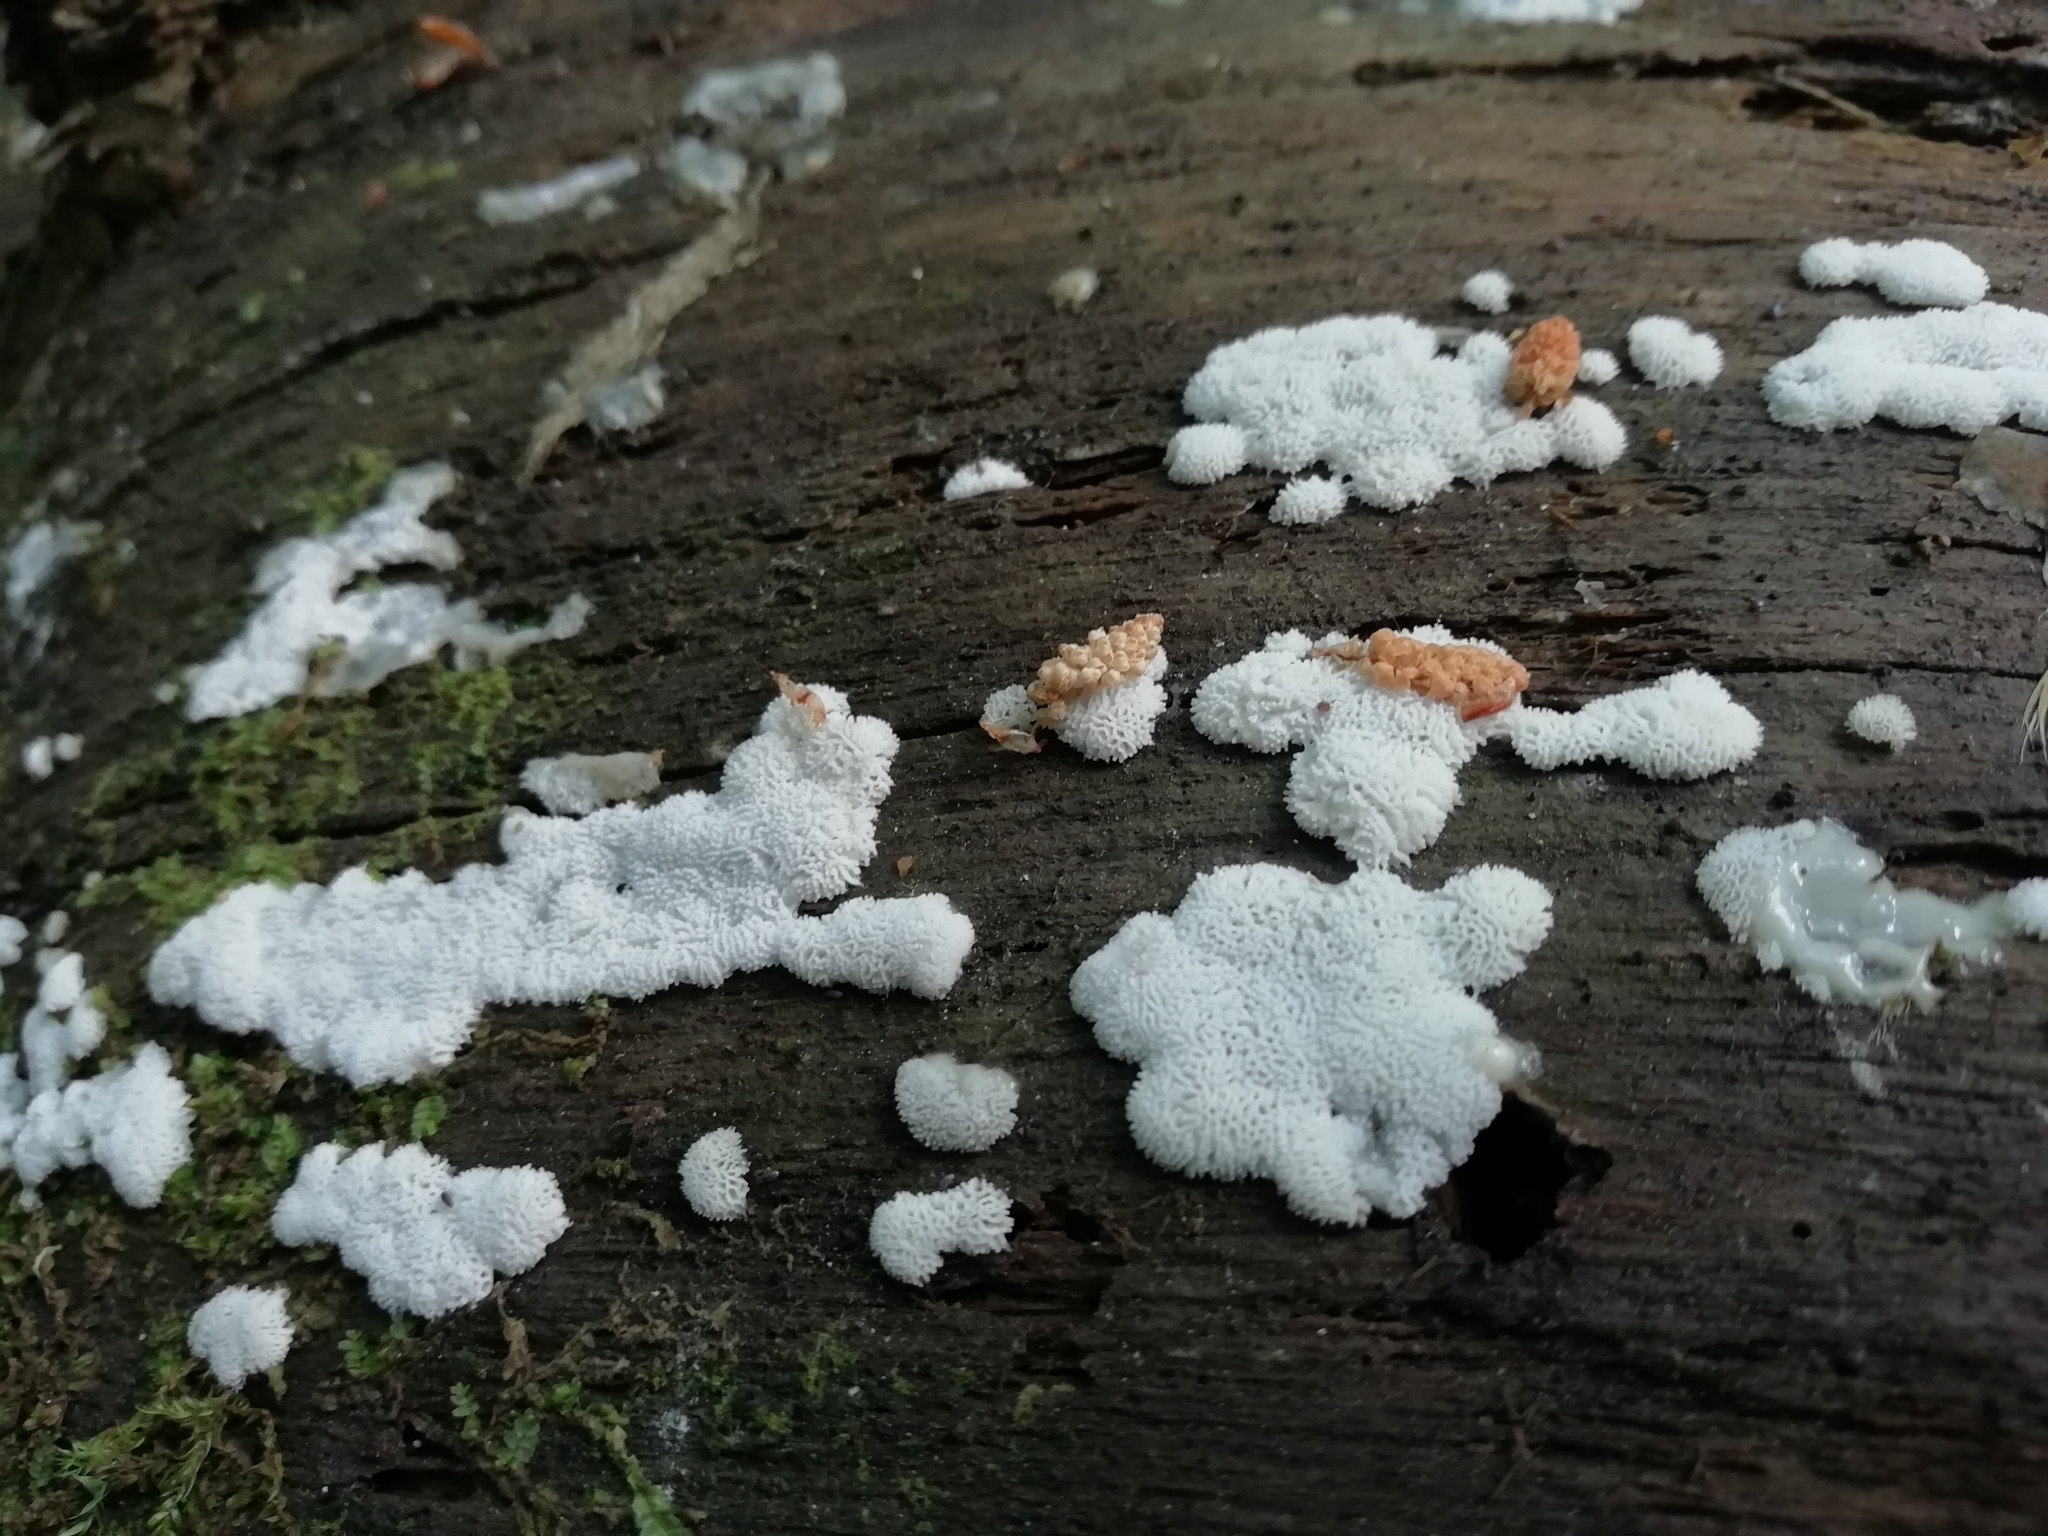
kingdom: Protozoa
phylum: Mycetozoa
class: Protosteliomycetes
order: Ceratiomyxales
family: Ceratiomyxaceae
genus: Ceratiomyxa
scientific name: Ceratiomyxa fruticulosa
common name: Honeycomb coral slime mold
